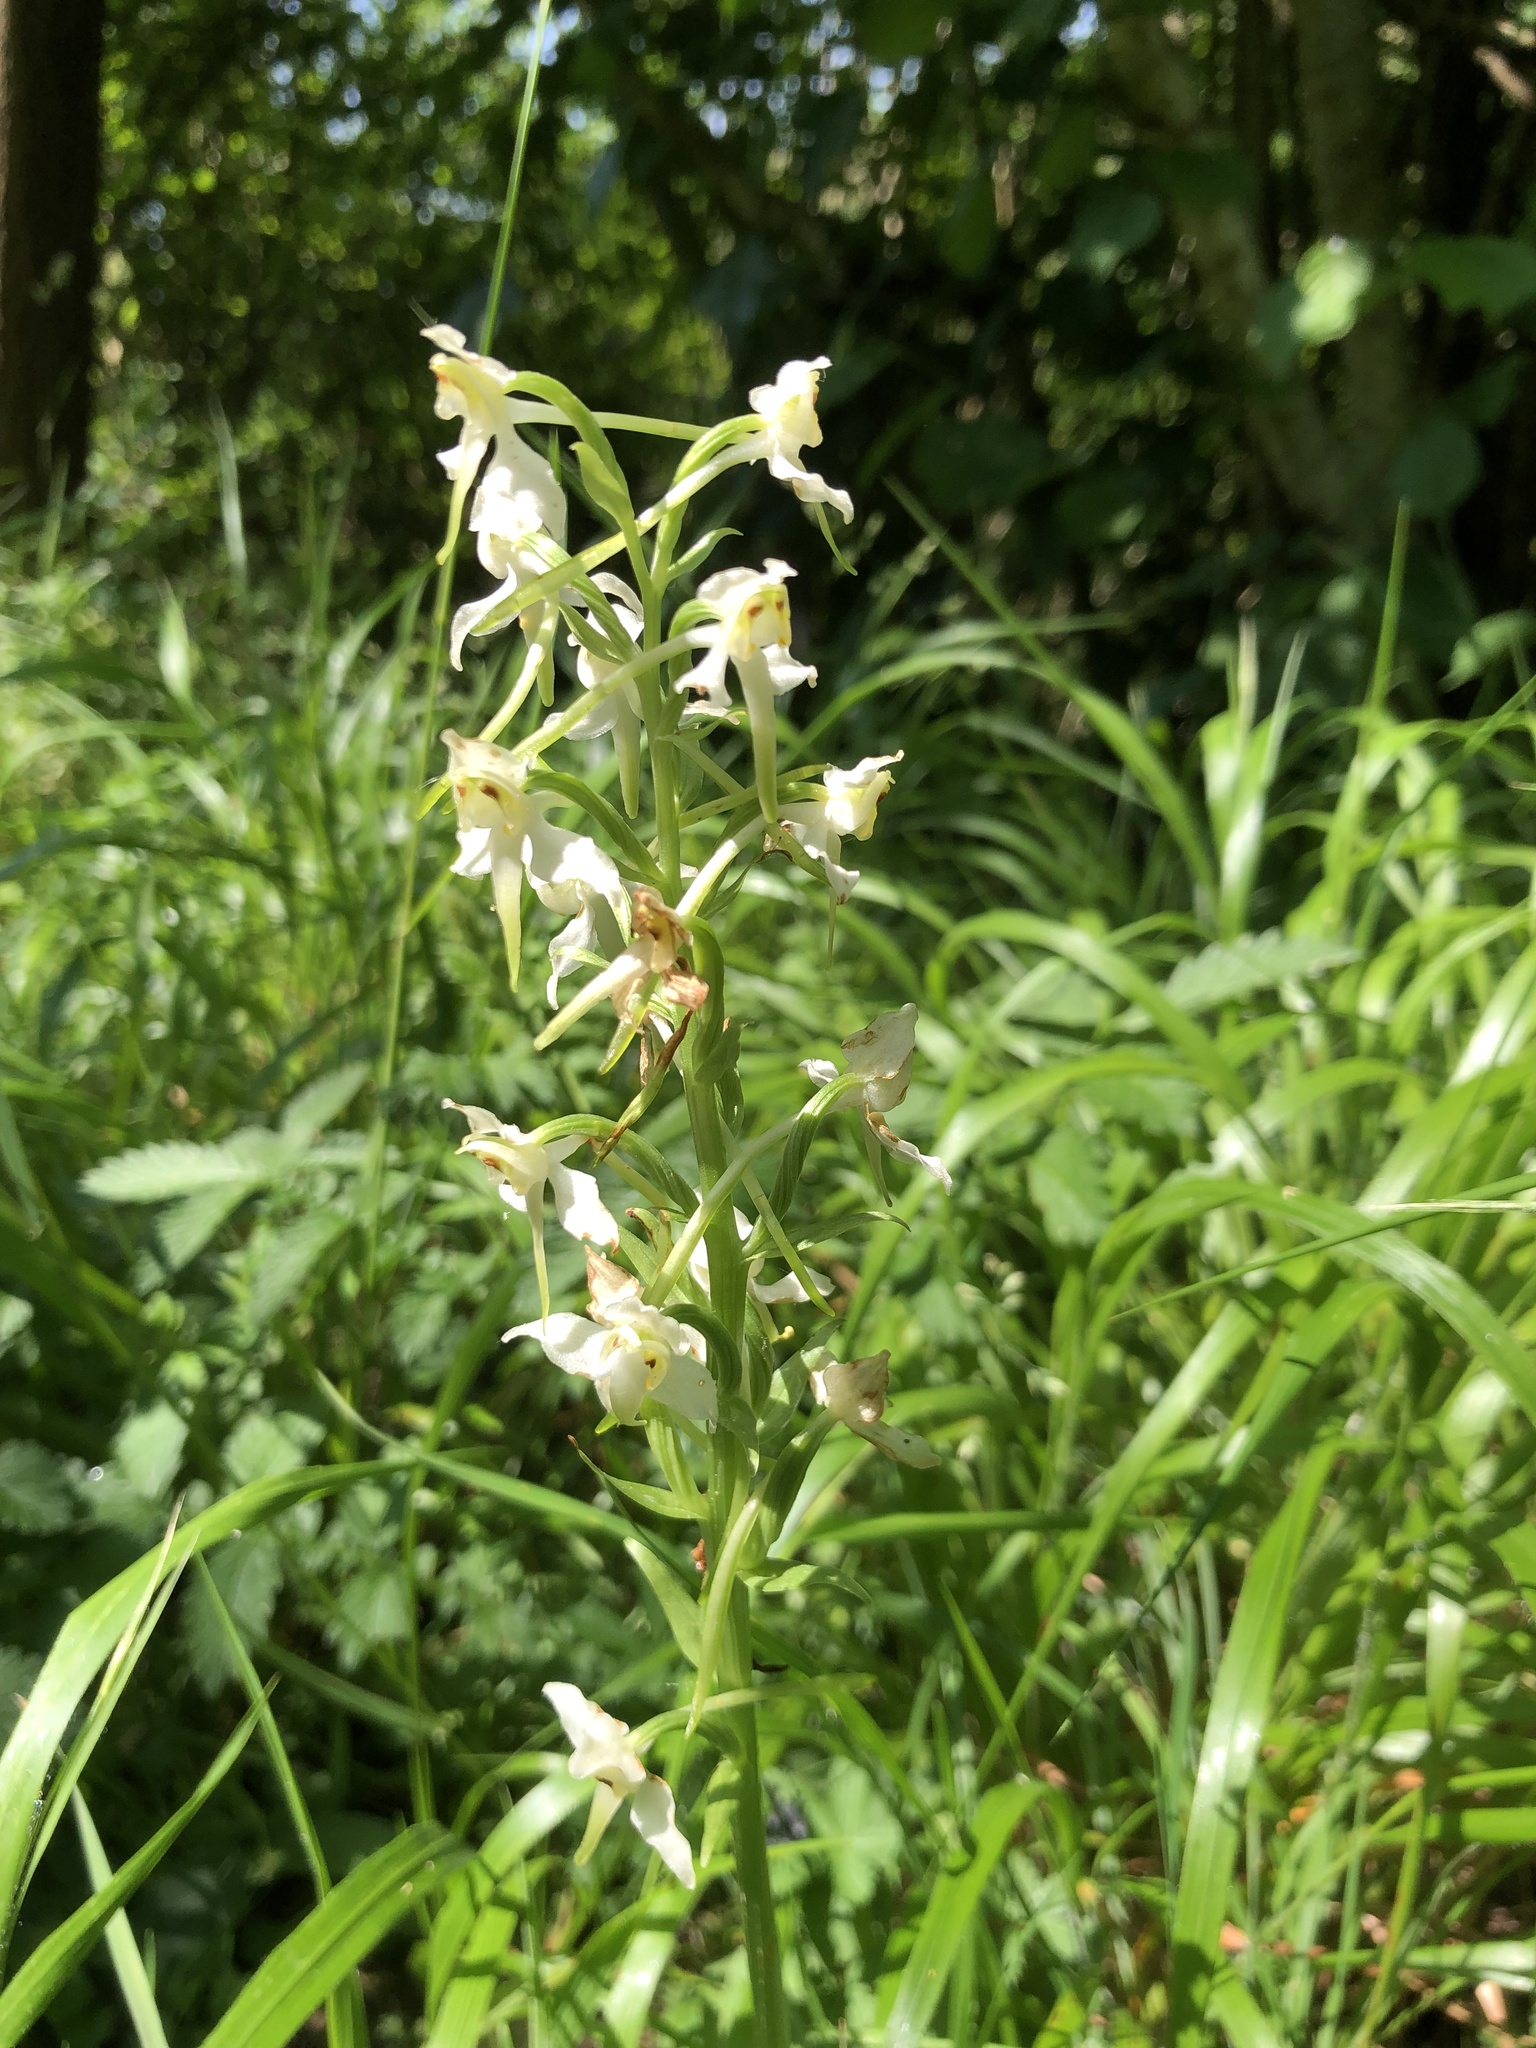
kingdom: Plantae
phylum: Tracheophyta
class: Liliopsida
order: Asparagales
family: Orchidaceae
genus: Platanthera
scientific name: Platanthera chlorantha
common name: Greater butterfly-orchid
